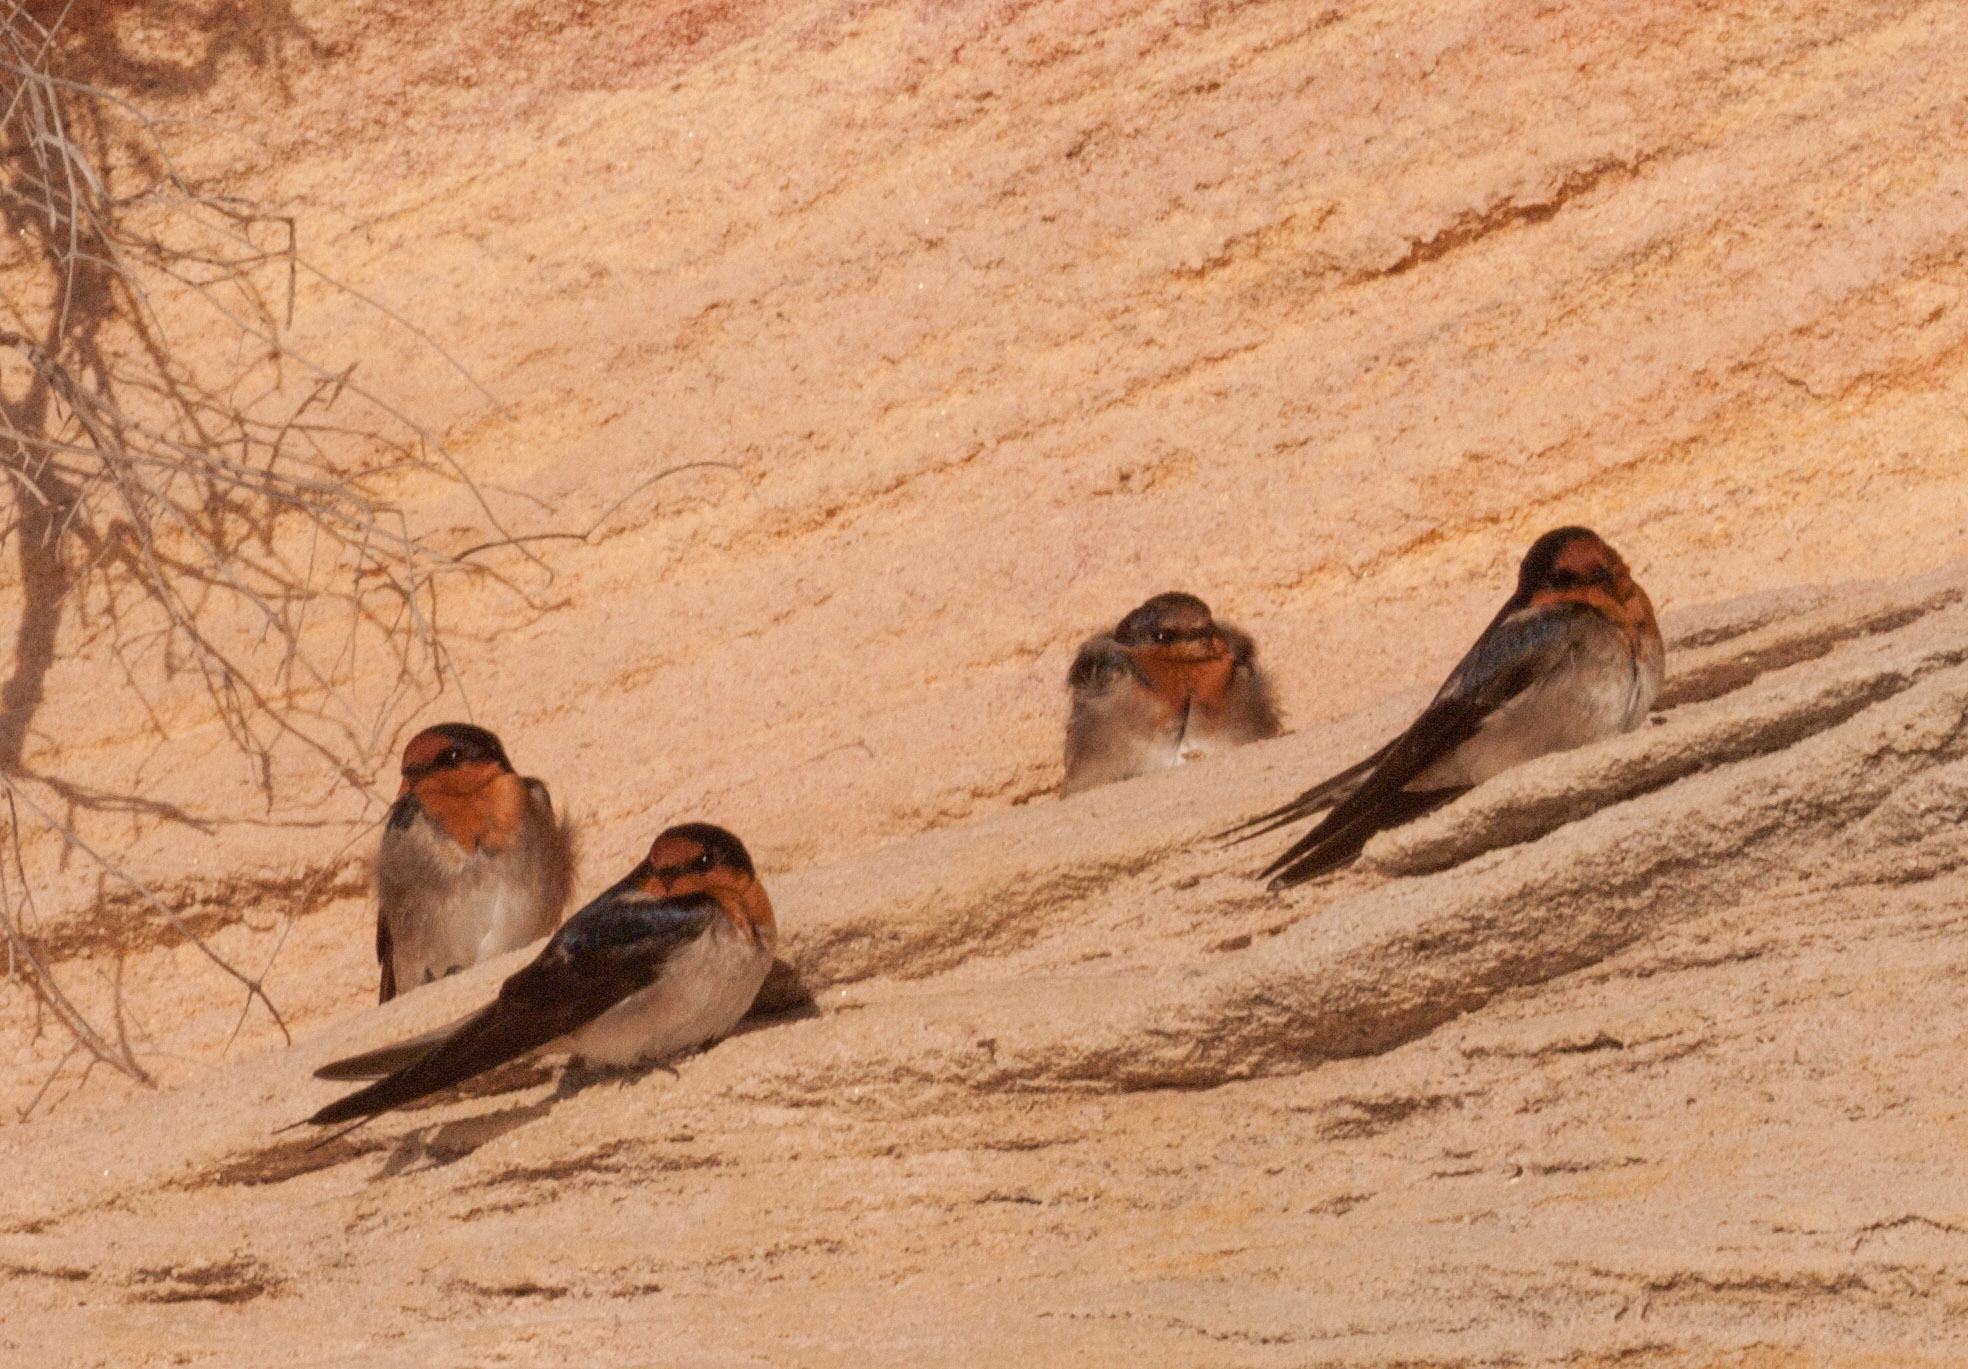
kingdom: Animalia
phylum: Chordata
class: Aves
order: Passeriformes
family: Hirundinidae
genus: Hirundo
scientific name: Hirundo neoxena
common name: Welcome swallow
